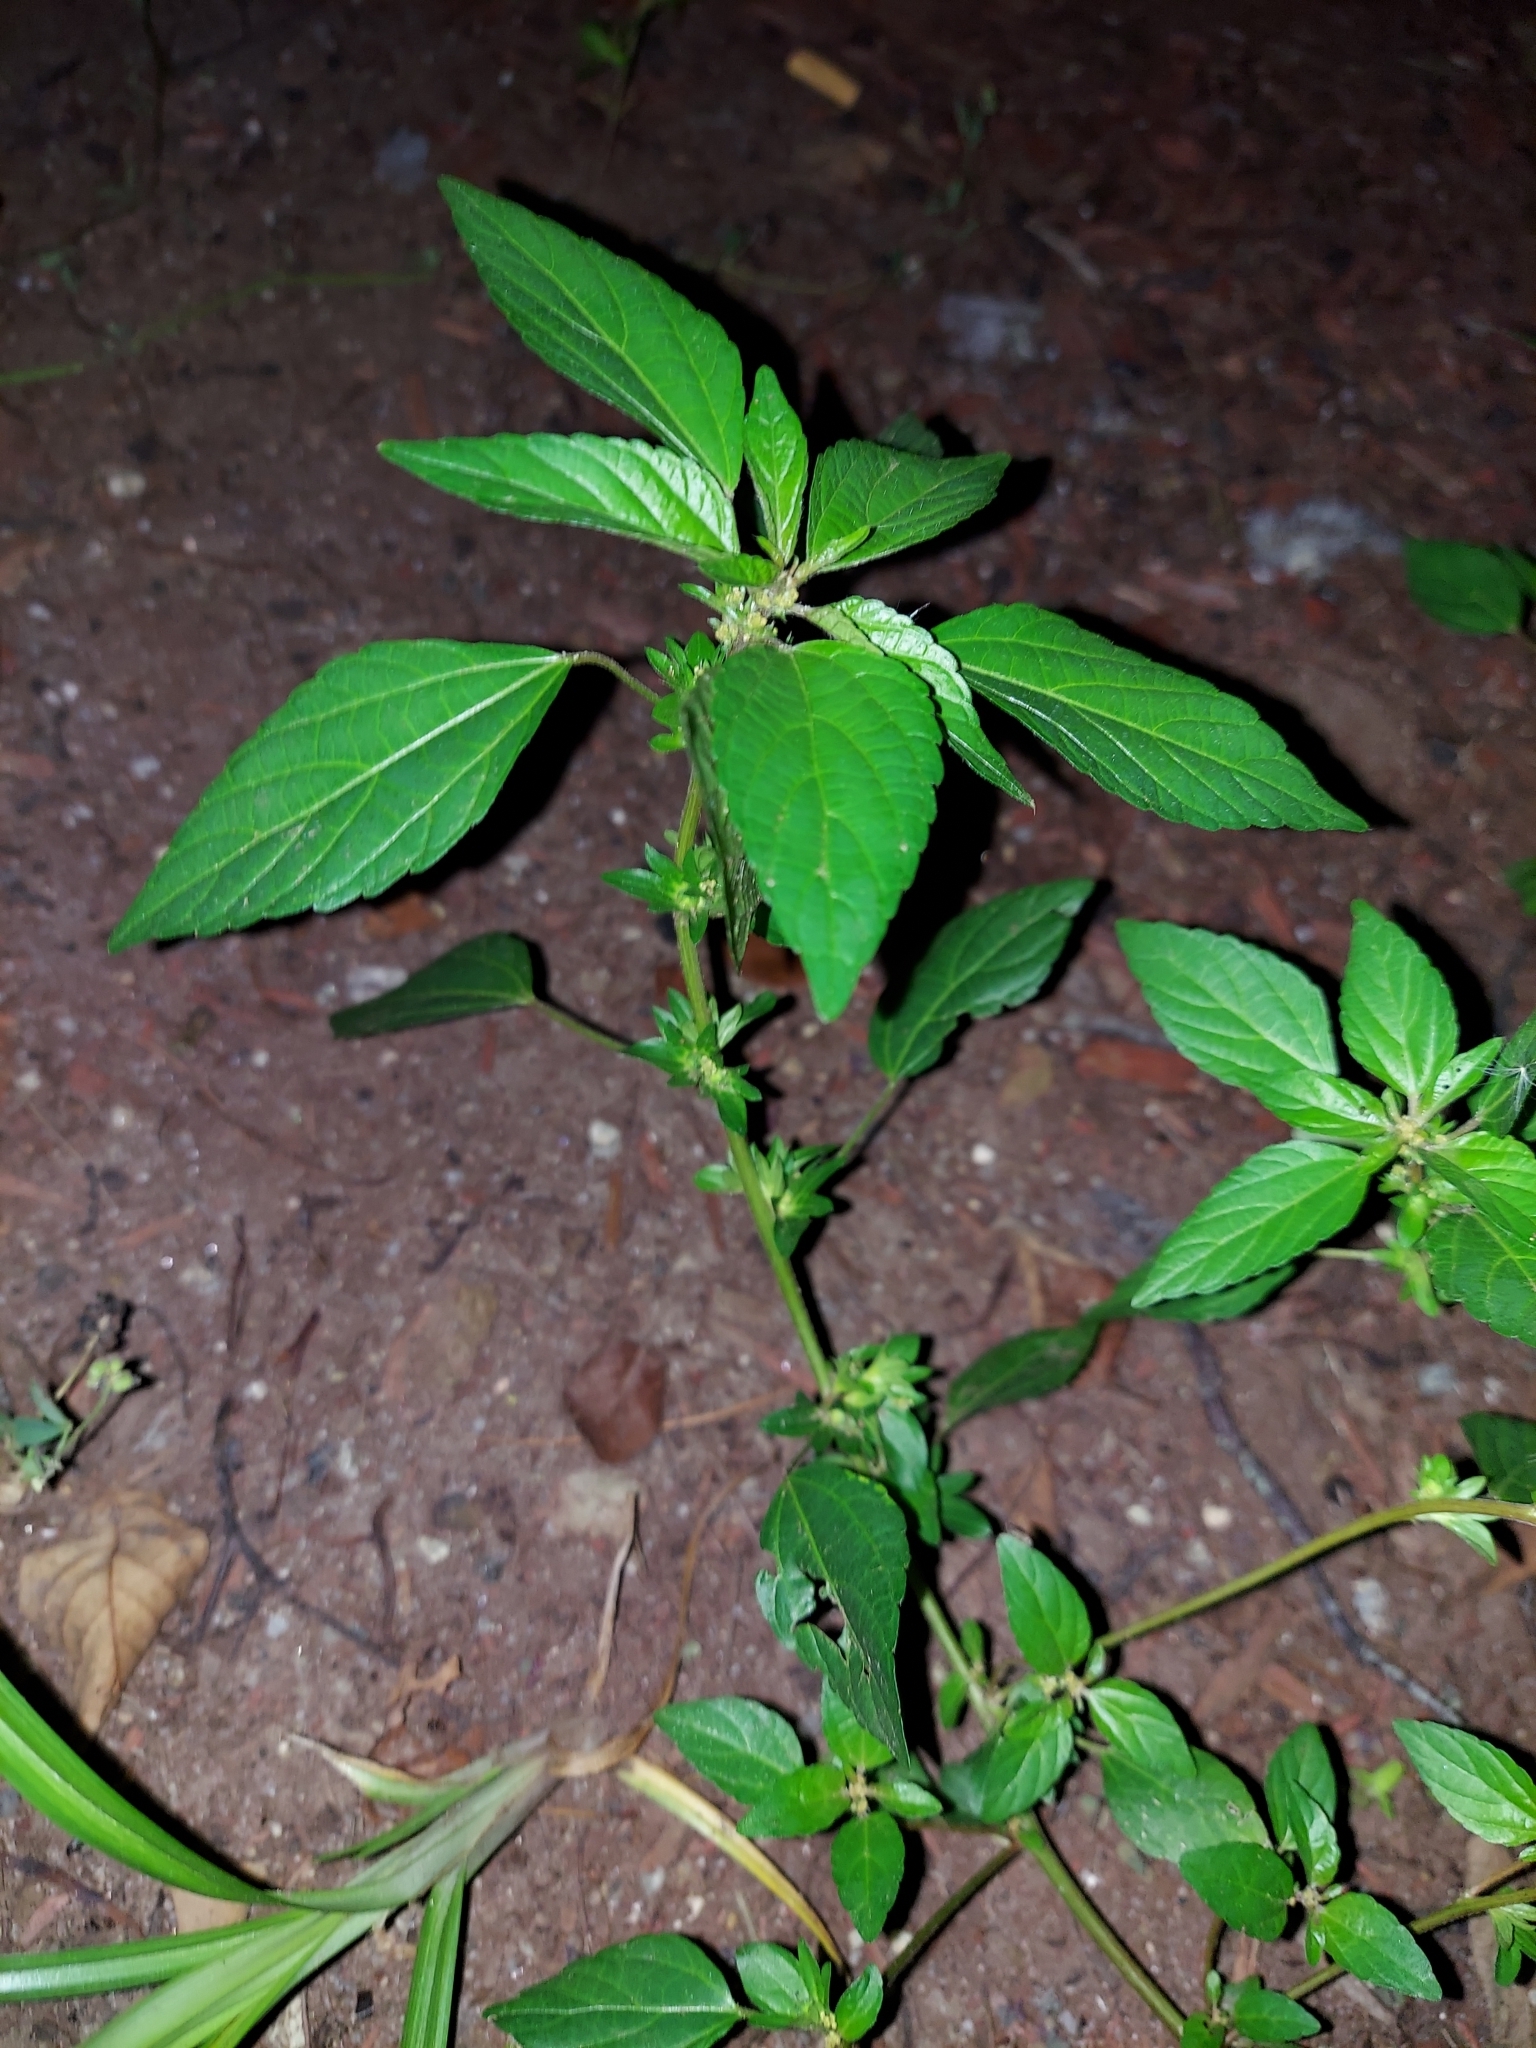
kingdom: Plantae
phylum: Tracheophyta
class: Magnoliopsida
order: Malpighiales
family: Euphorbiaceae
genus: Acalypha
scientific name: Acalypha rhomboidea
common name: Rhombic copperleaf
